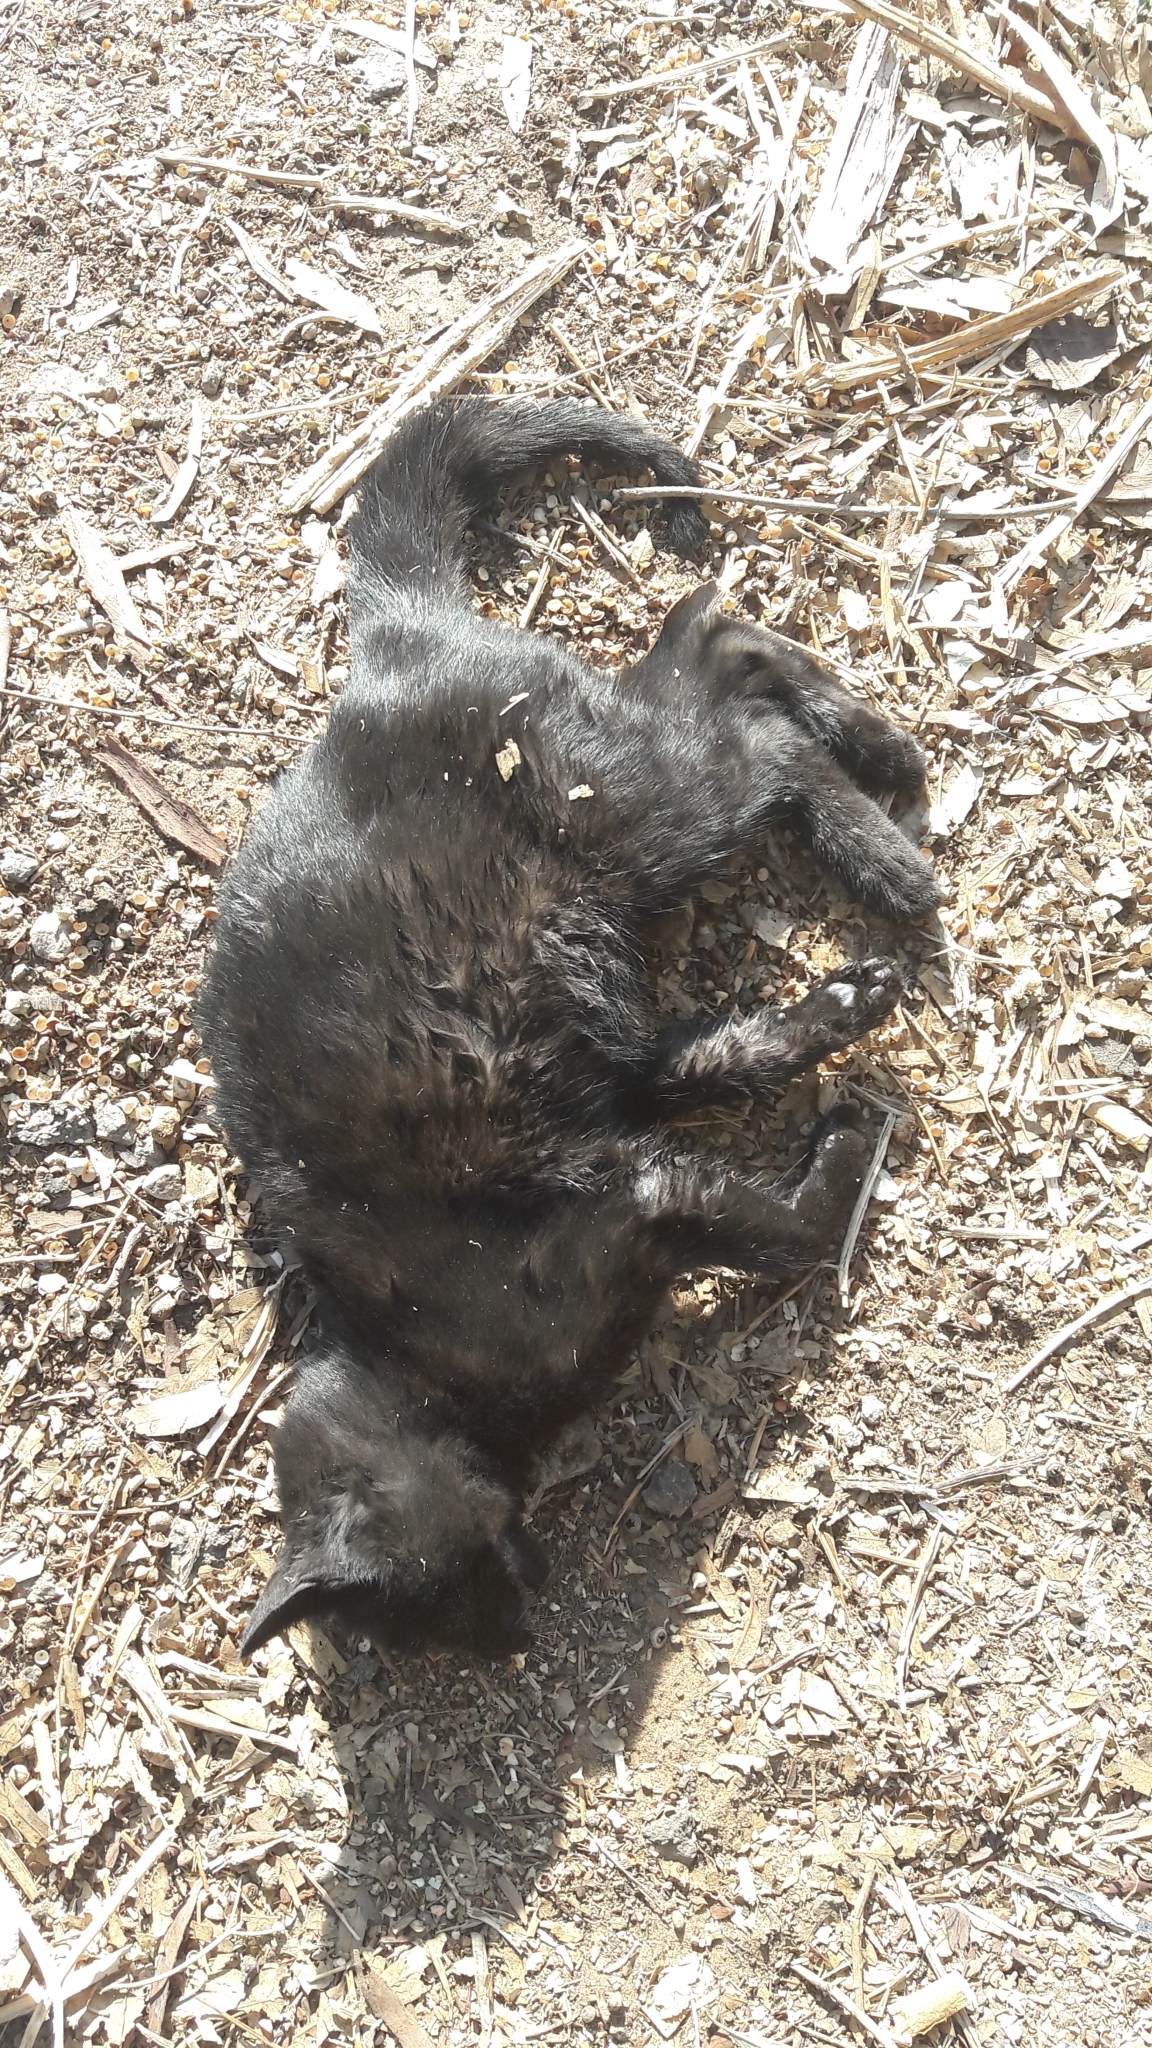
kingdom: Animalia
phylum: Chordata
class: Mammalia
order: Carnivora
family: Felidae
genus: Felis
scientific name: Felis catus
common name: Domestic cat
